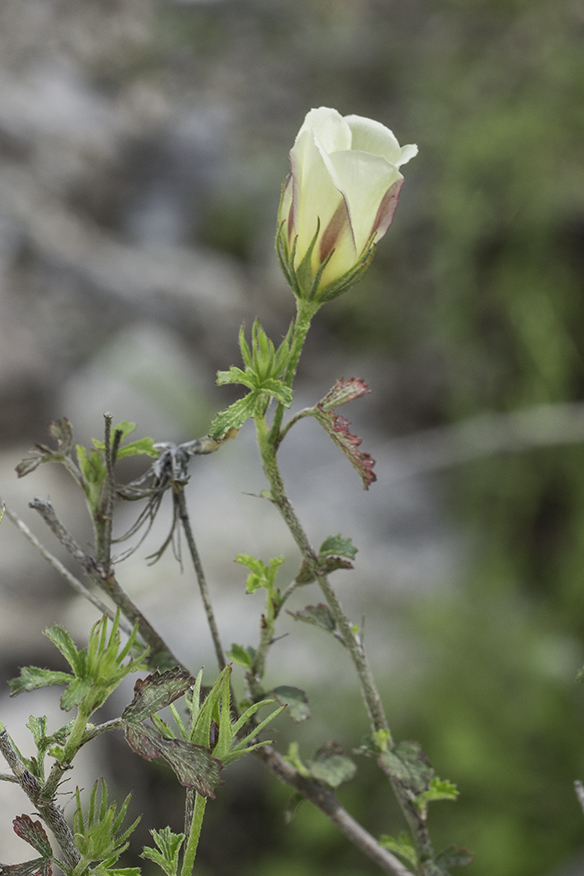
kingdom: Plantae
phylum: Tracheophyta
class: Magnoliopsida
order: Malvales
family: Malvaceae
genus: Hibiscus
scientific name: Hibiscus coulteri
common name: Desert rose-mallow
